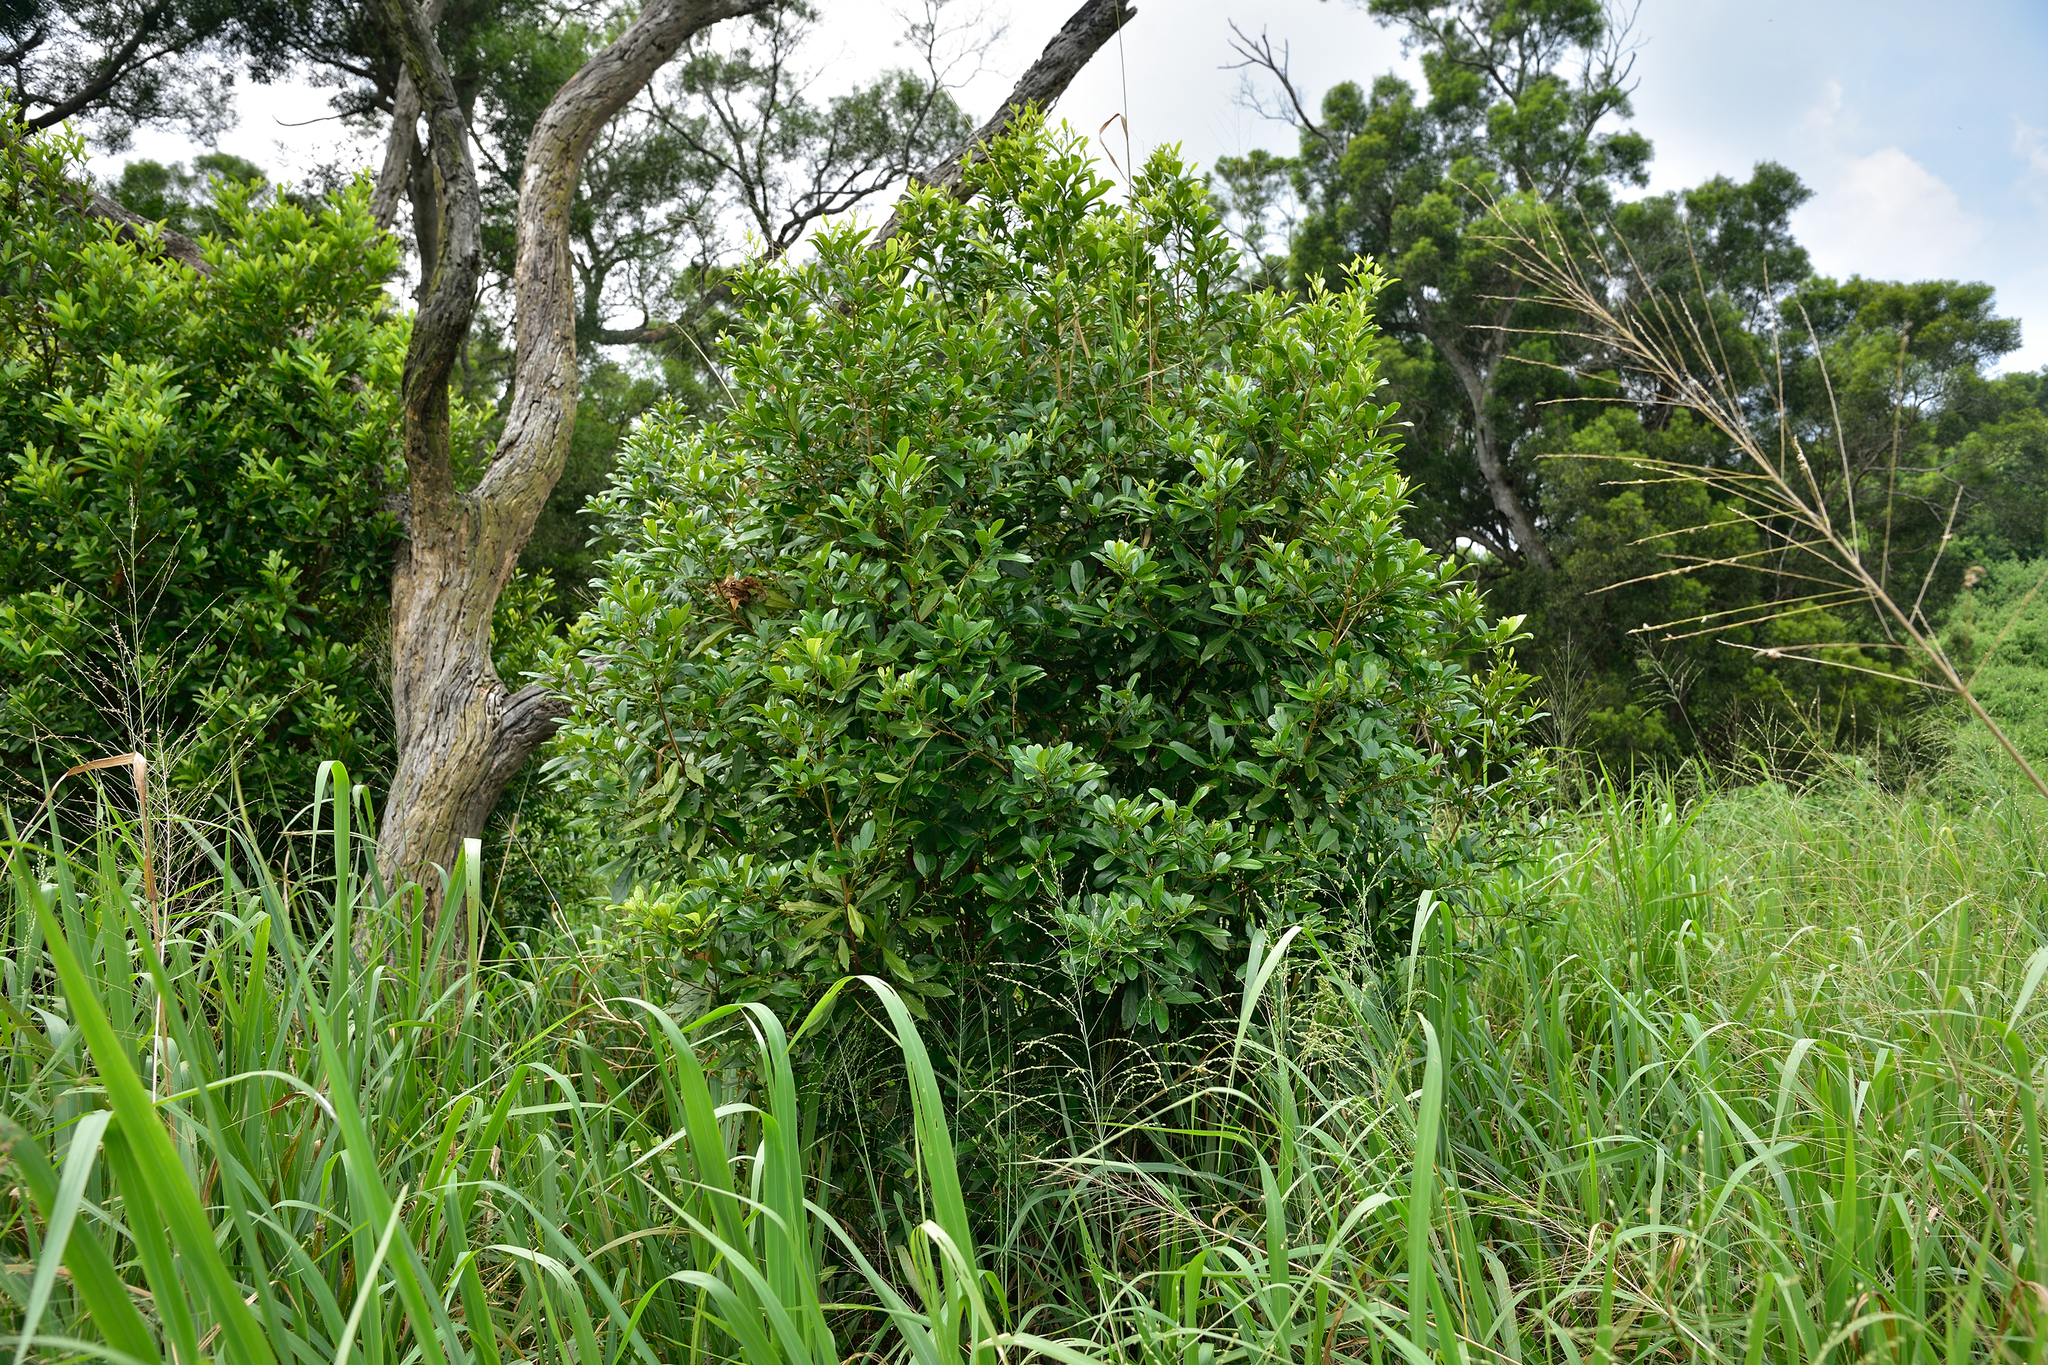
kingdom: Plantae
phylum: Tracheophyta
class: Magnoliopsida
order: Laurales
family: Lauraceae
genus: Litsea
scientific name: Litsea hypophaea
